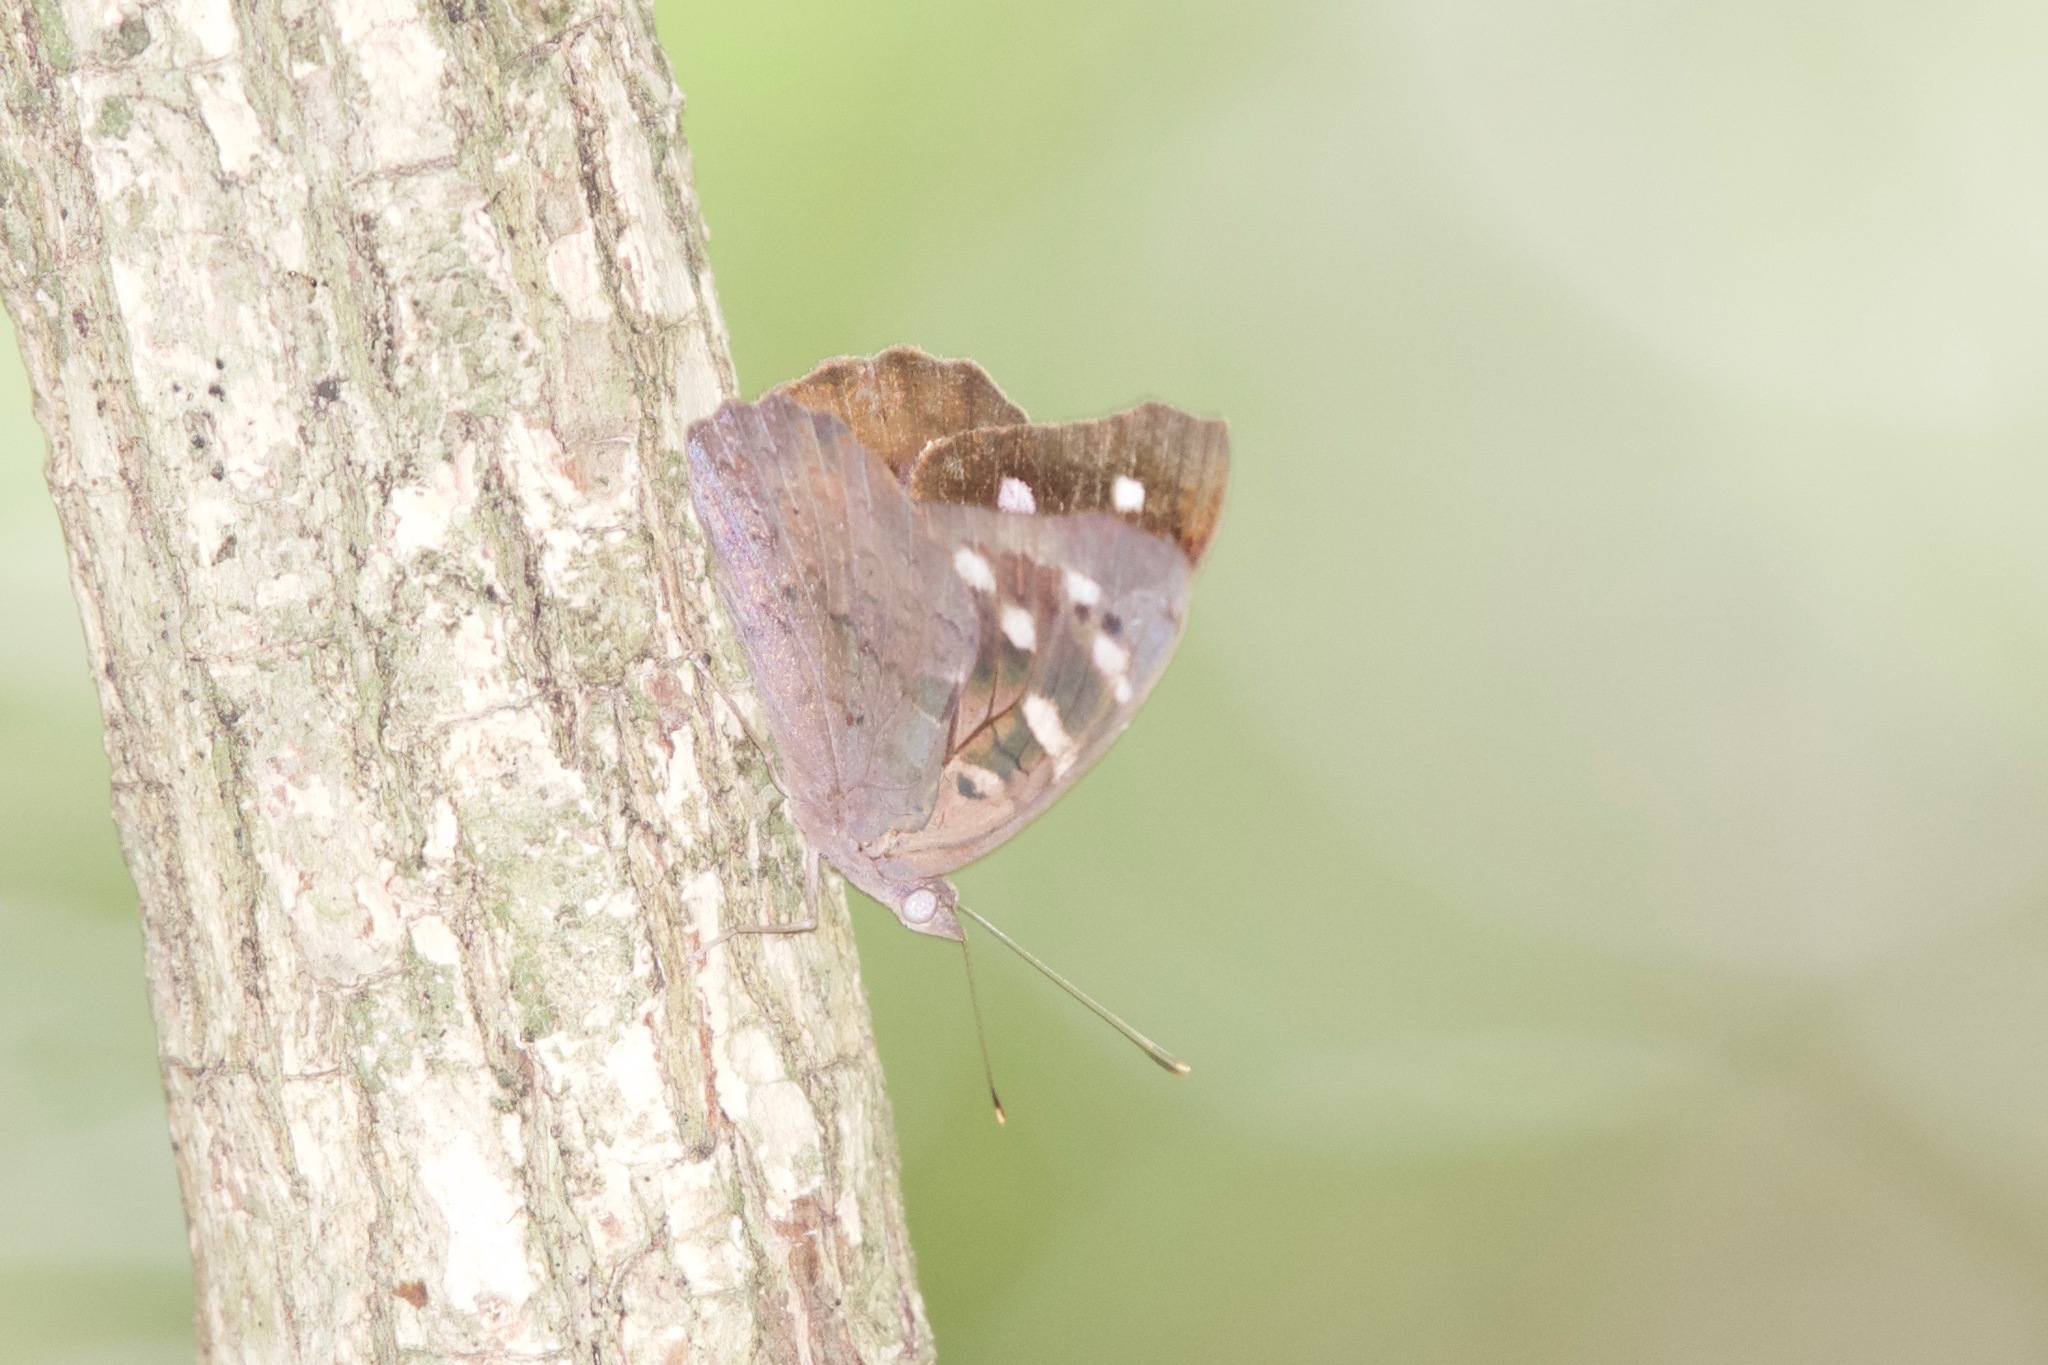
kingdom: Animalia
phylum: Arthropoda
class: Insecta
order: Lepidoptera
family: Nymphalidae
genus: Eunica
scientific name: Eunica tatila
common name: Florida purplewing
